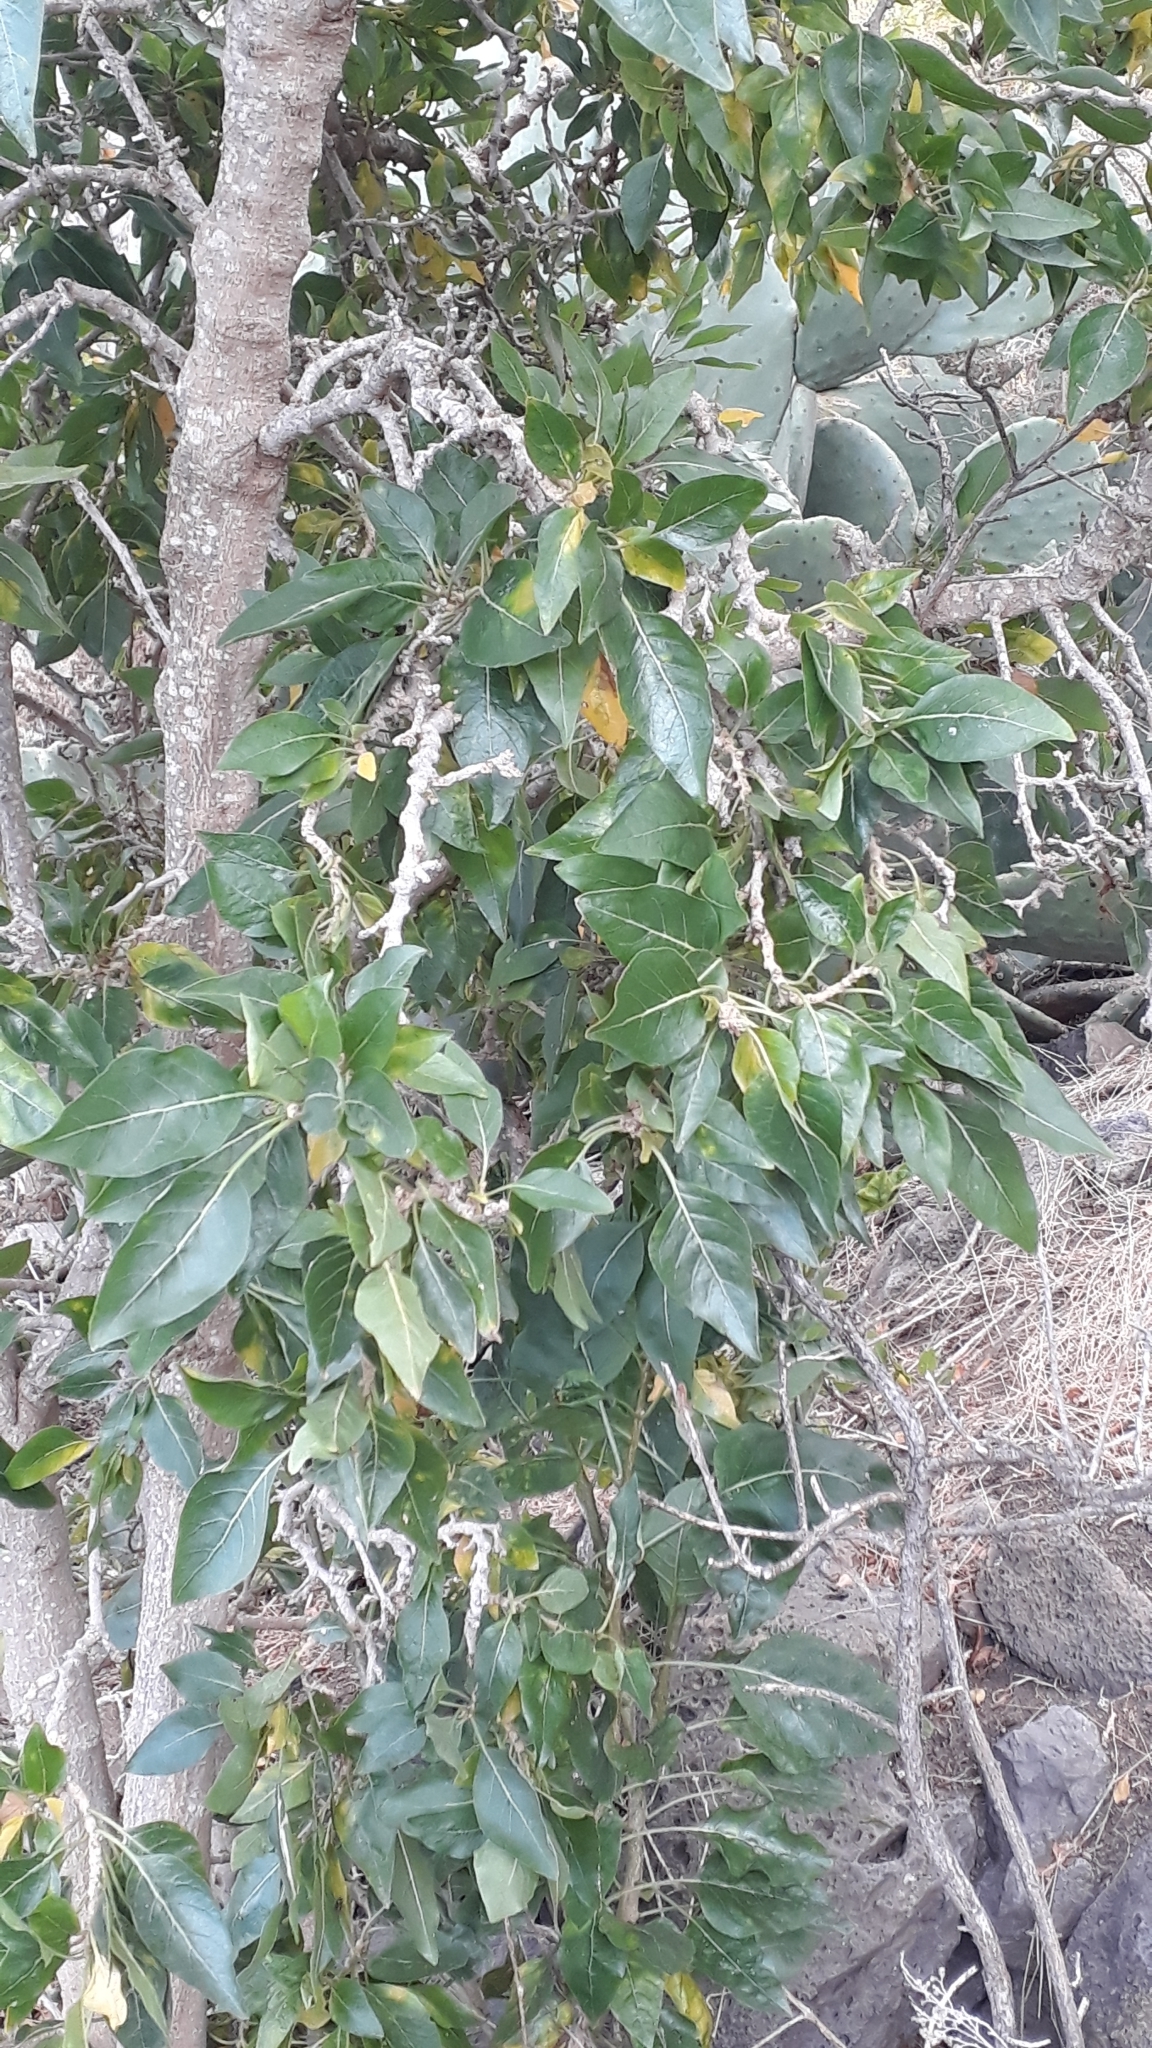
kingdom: Plantae
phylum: Tracheophyta
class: Magnoliopsida
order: Solanales
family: Solanaceae
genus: Withania
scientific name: Withania aristata
